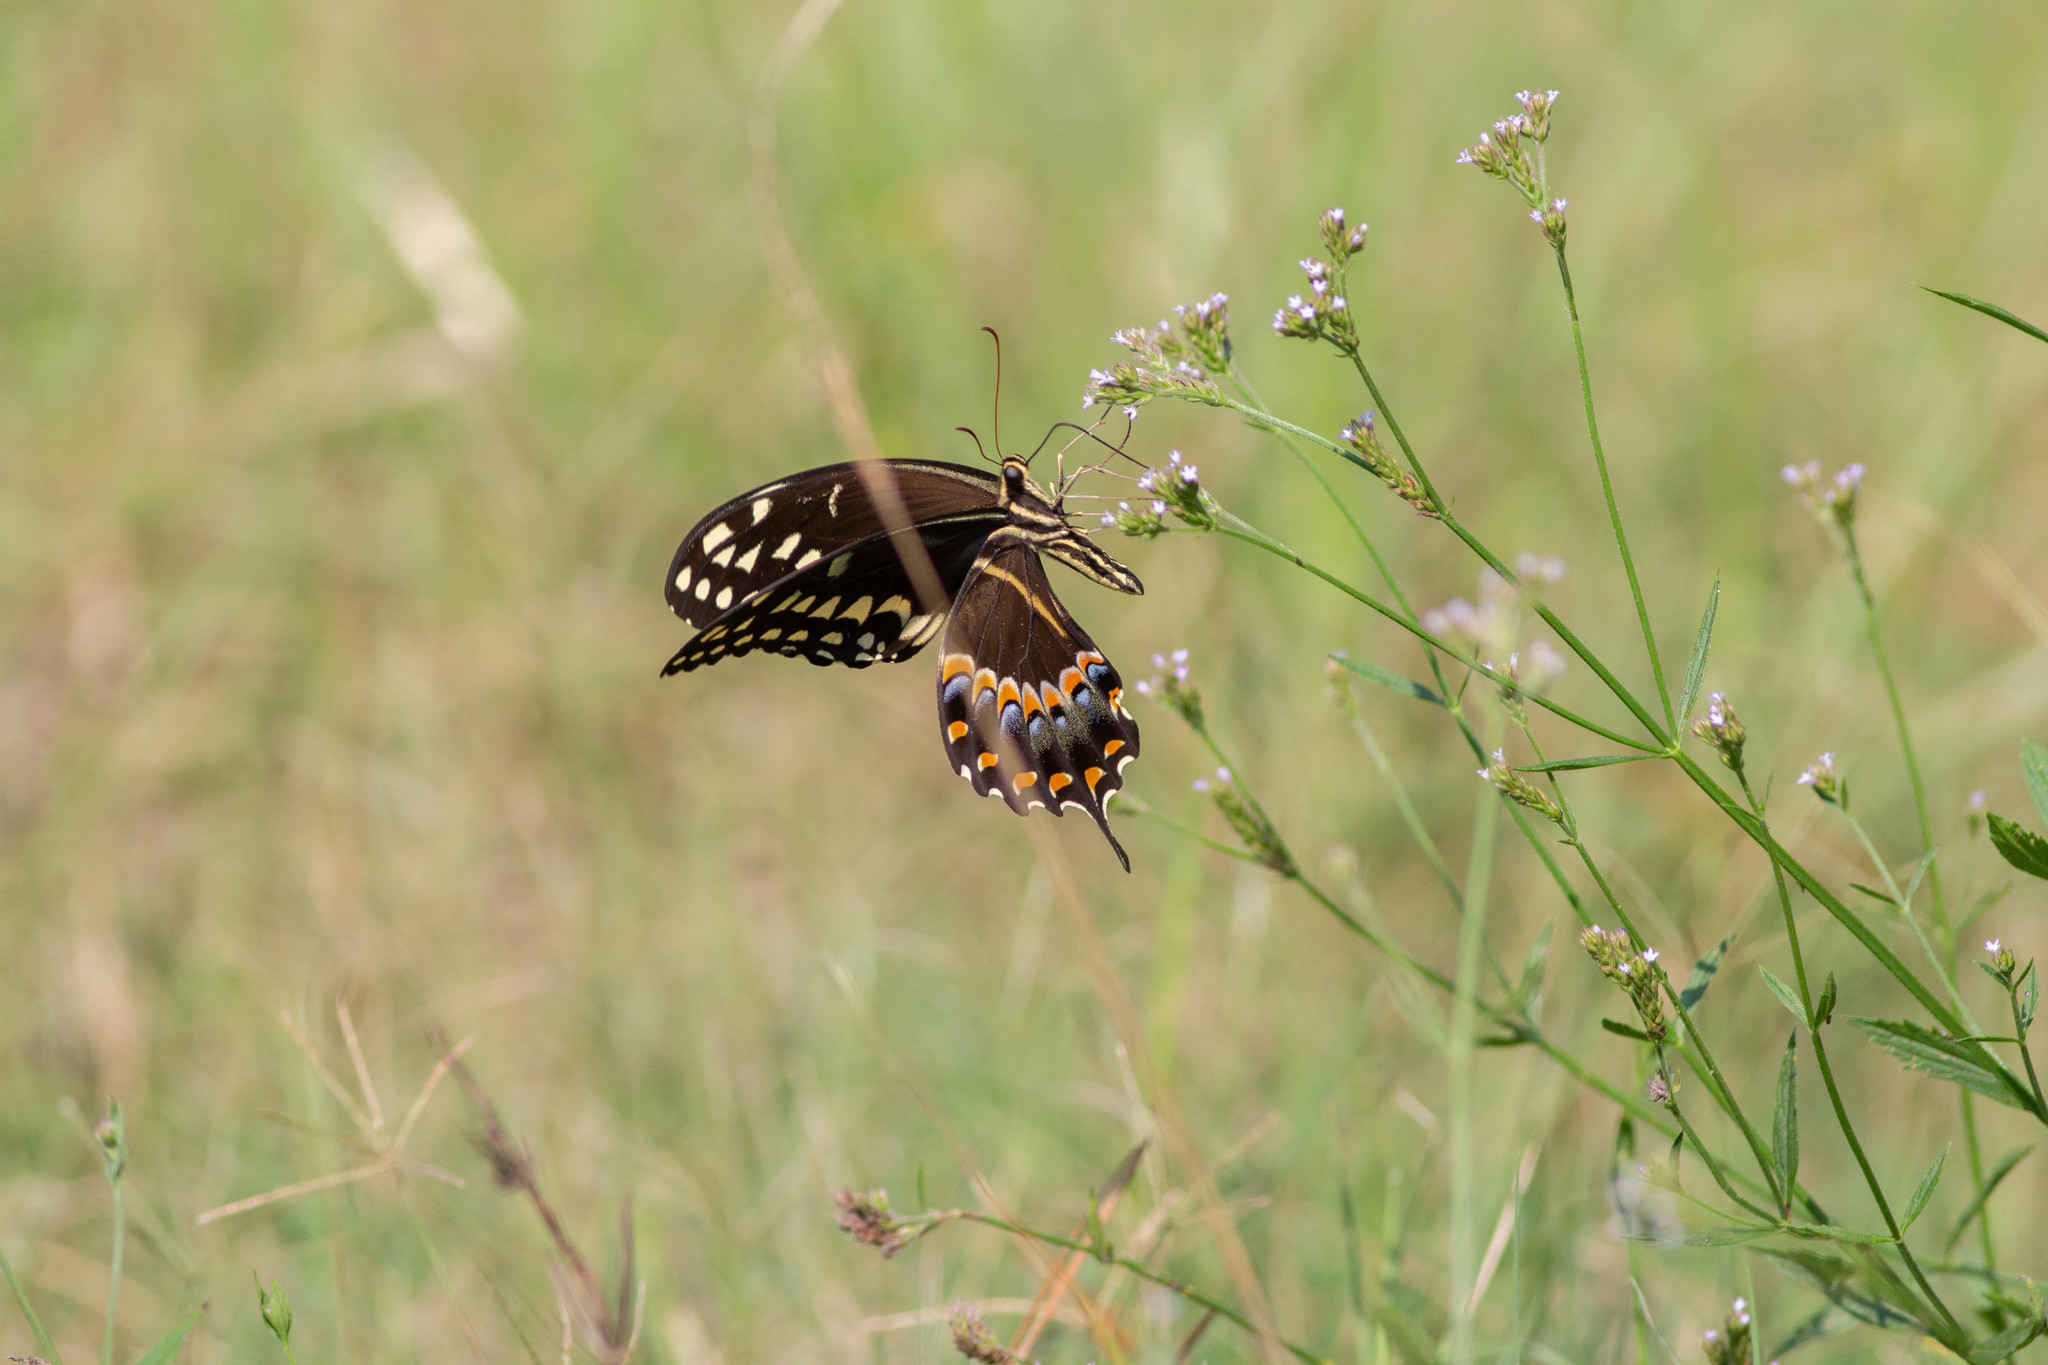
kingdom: Animalia
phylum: Arthropoda
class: Insecta
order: Lepidoptera
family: Papilionidae
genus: Papilio
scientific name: Papilio palamedes
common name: Palamedes swallowtail
